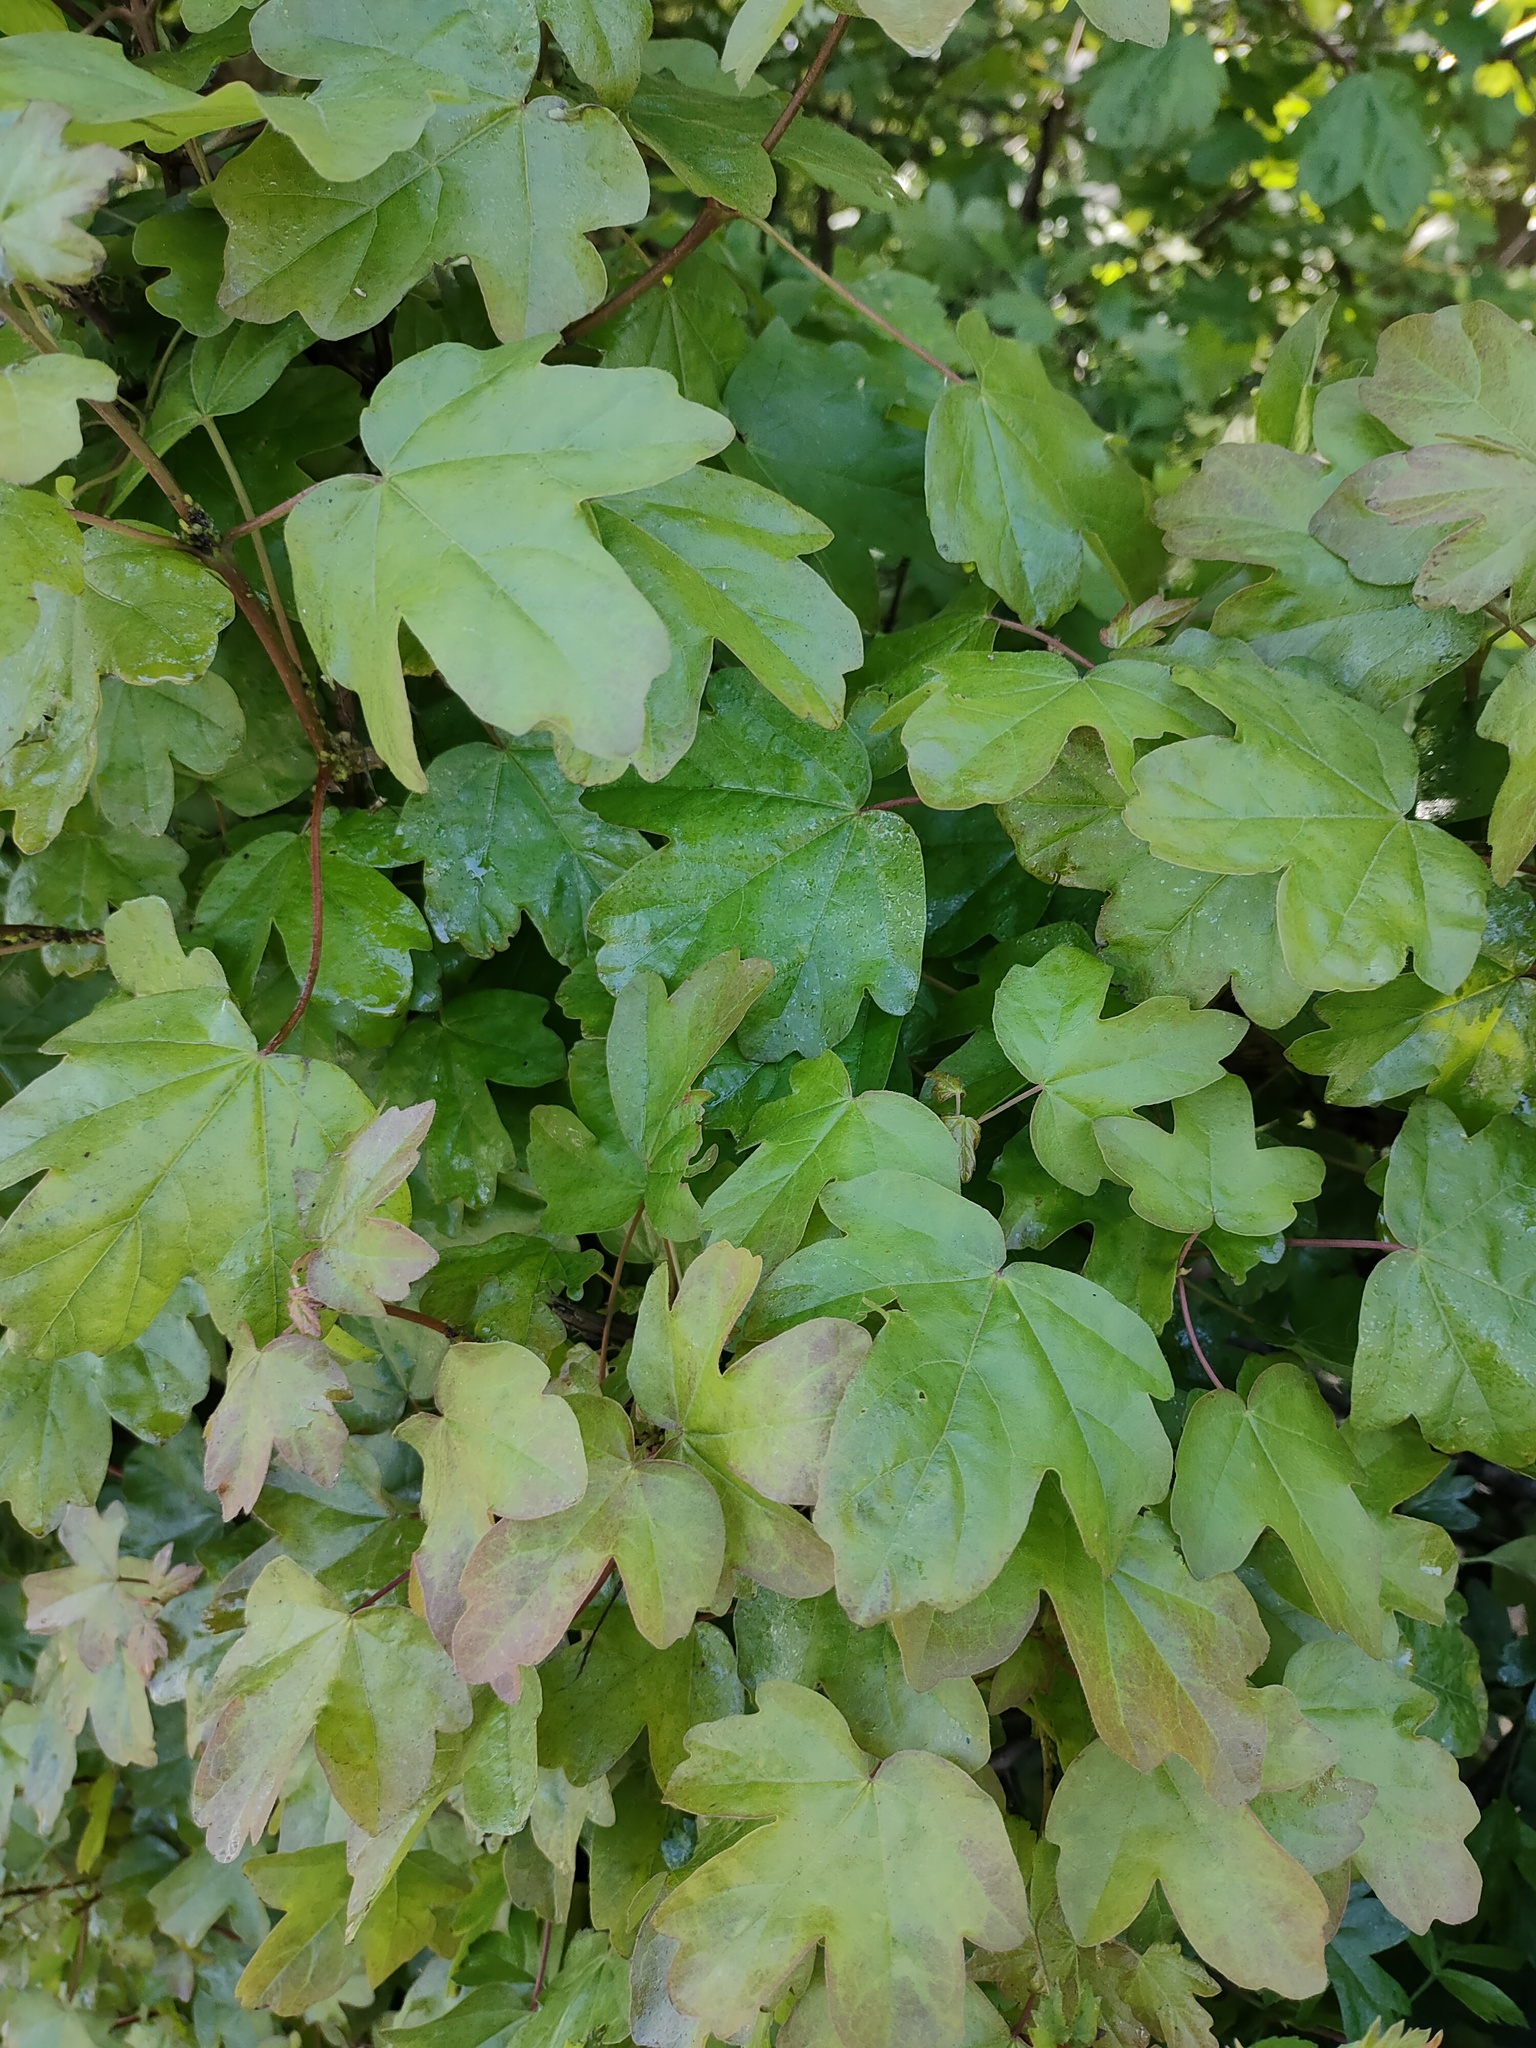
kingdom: Plantae
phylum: Tracheophyta
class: Magnoliopsida
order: Sapindales
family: Sapindaceae
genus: Acer
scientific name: Acer campestre
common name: Field maple
